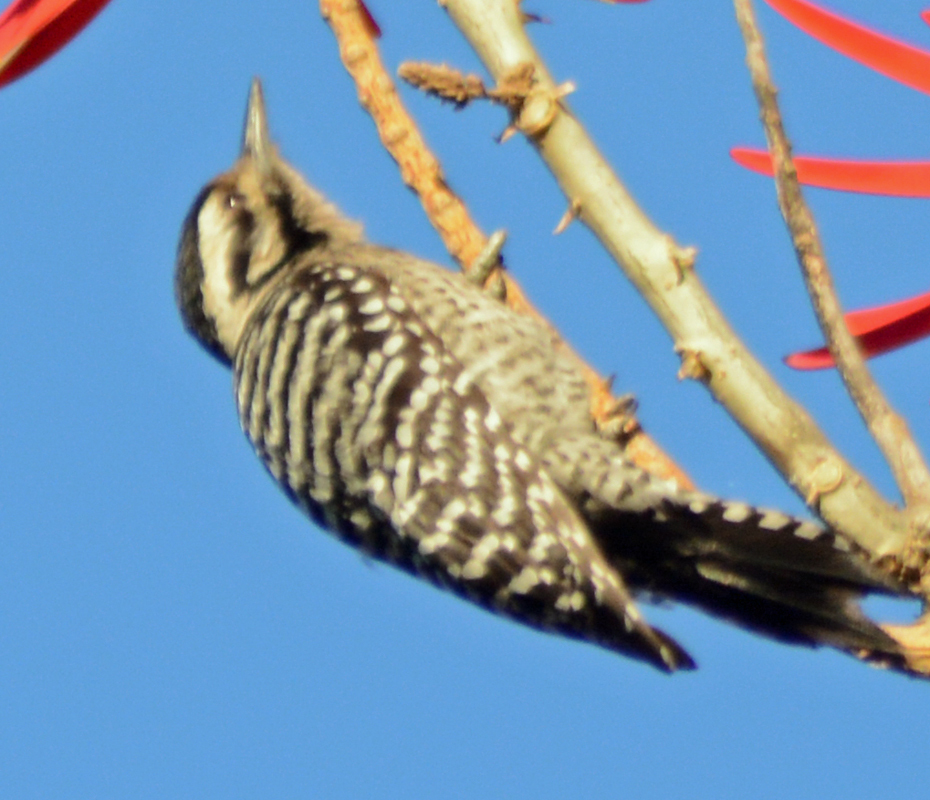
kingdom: Animalia
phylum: Chordata
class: Aves
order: Piciformes
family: Picidae
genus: Dryobates
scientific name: Dryobates scalaris
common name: Ladder-backed woodpecker
